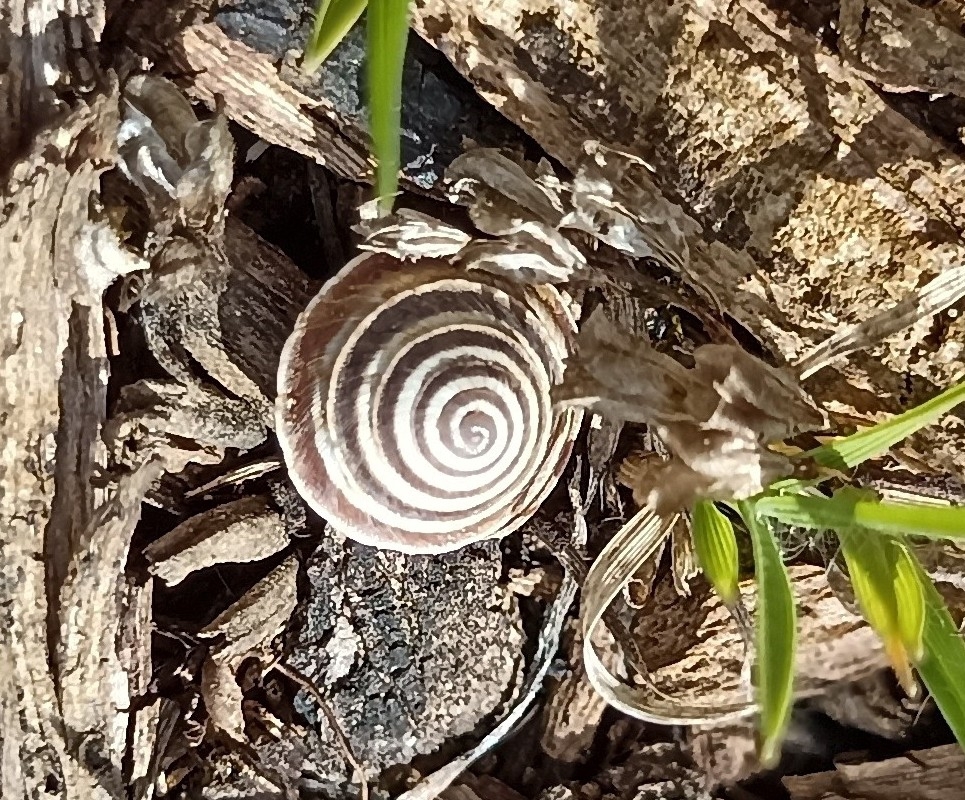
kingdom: Animalia
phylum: Mollusca
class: Gastropoda
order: Stylommatophora
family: Geomitridae
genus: Trochoidea
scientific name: Trochoidea elegans
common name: Elegant helicellid
